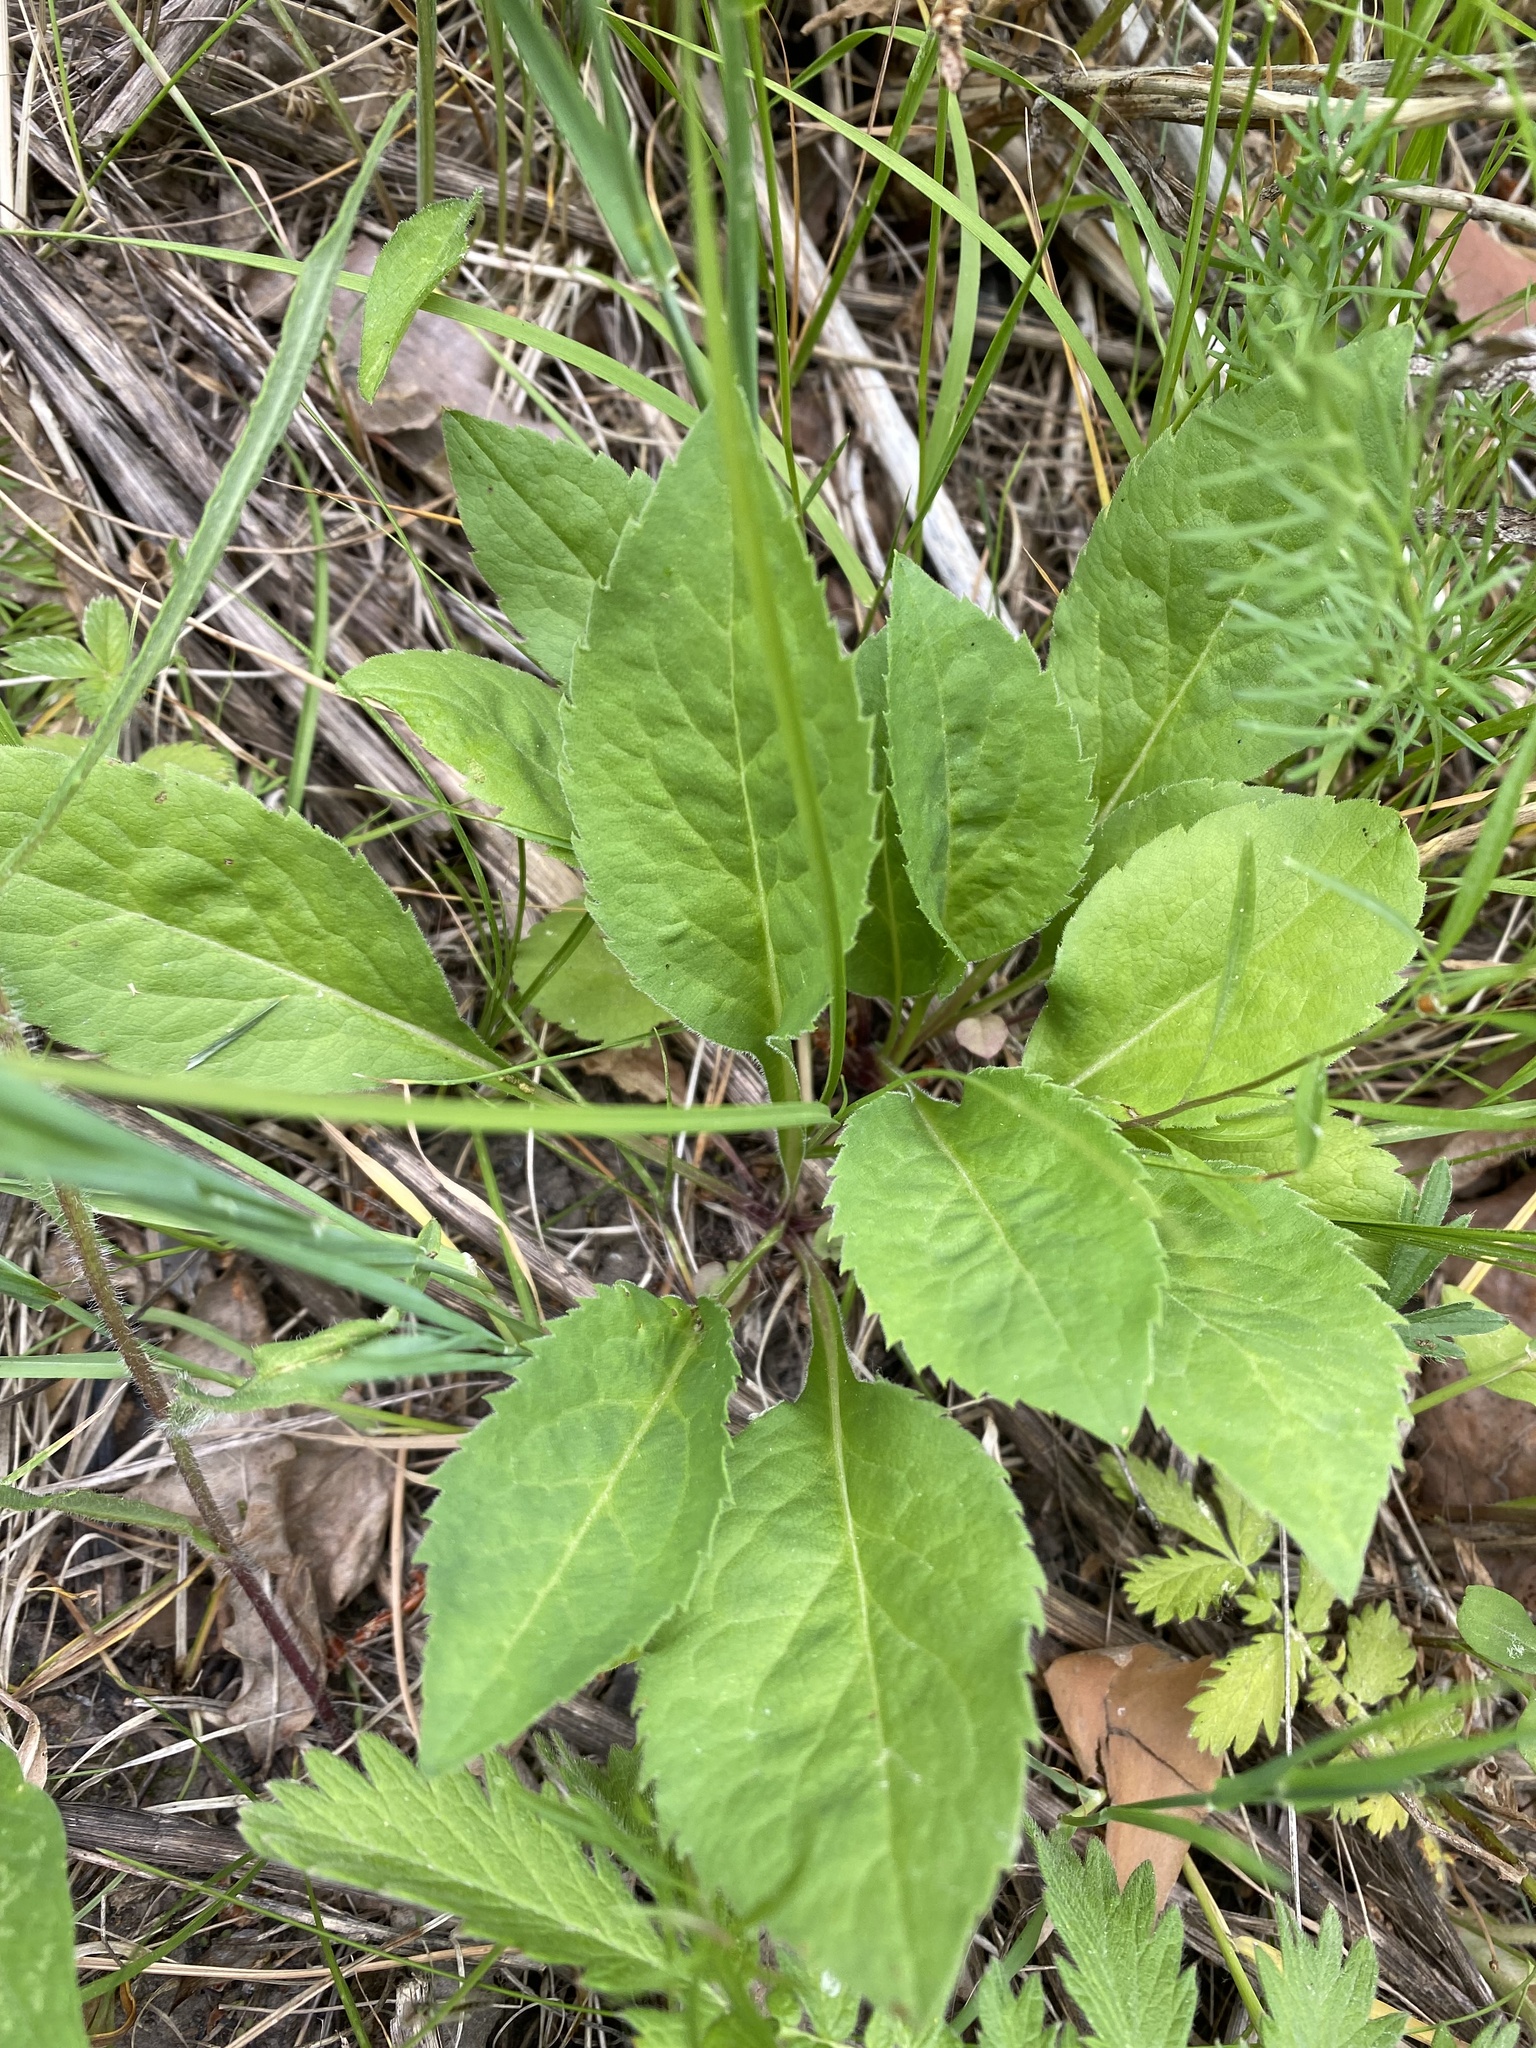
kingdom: Plantae
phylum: Tracheophyta
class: Magnoliopsida
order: Asterales
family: Asteraceae
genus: Solidago
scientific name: Solidago virgaurea
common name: Goldenrod
